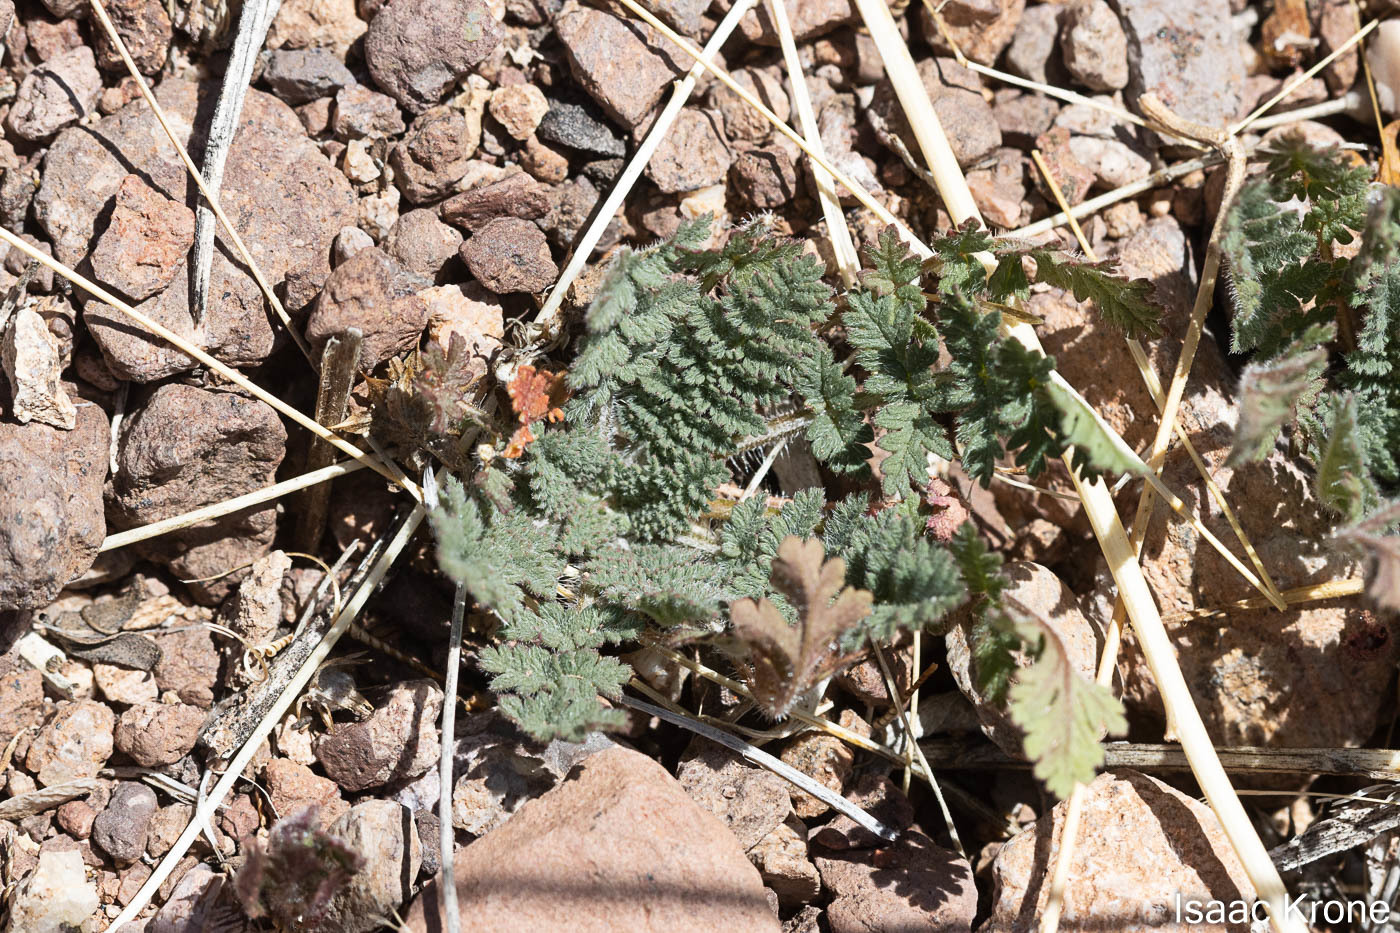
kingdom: Plantae
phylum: Tracheophyta
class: Magnoliopsida
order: Geraniales
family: Geraniaceae
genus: Erodium
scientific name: Erodium cicutarium
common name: Common stork's-bill
